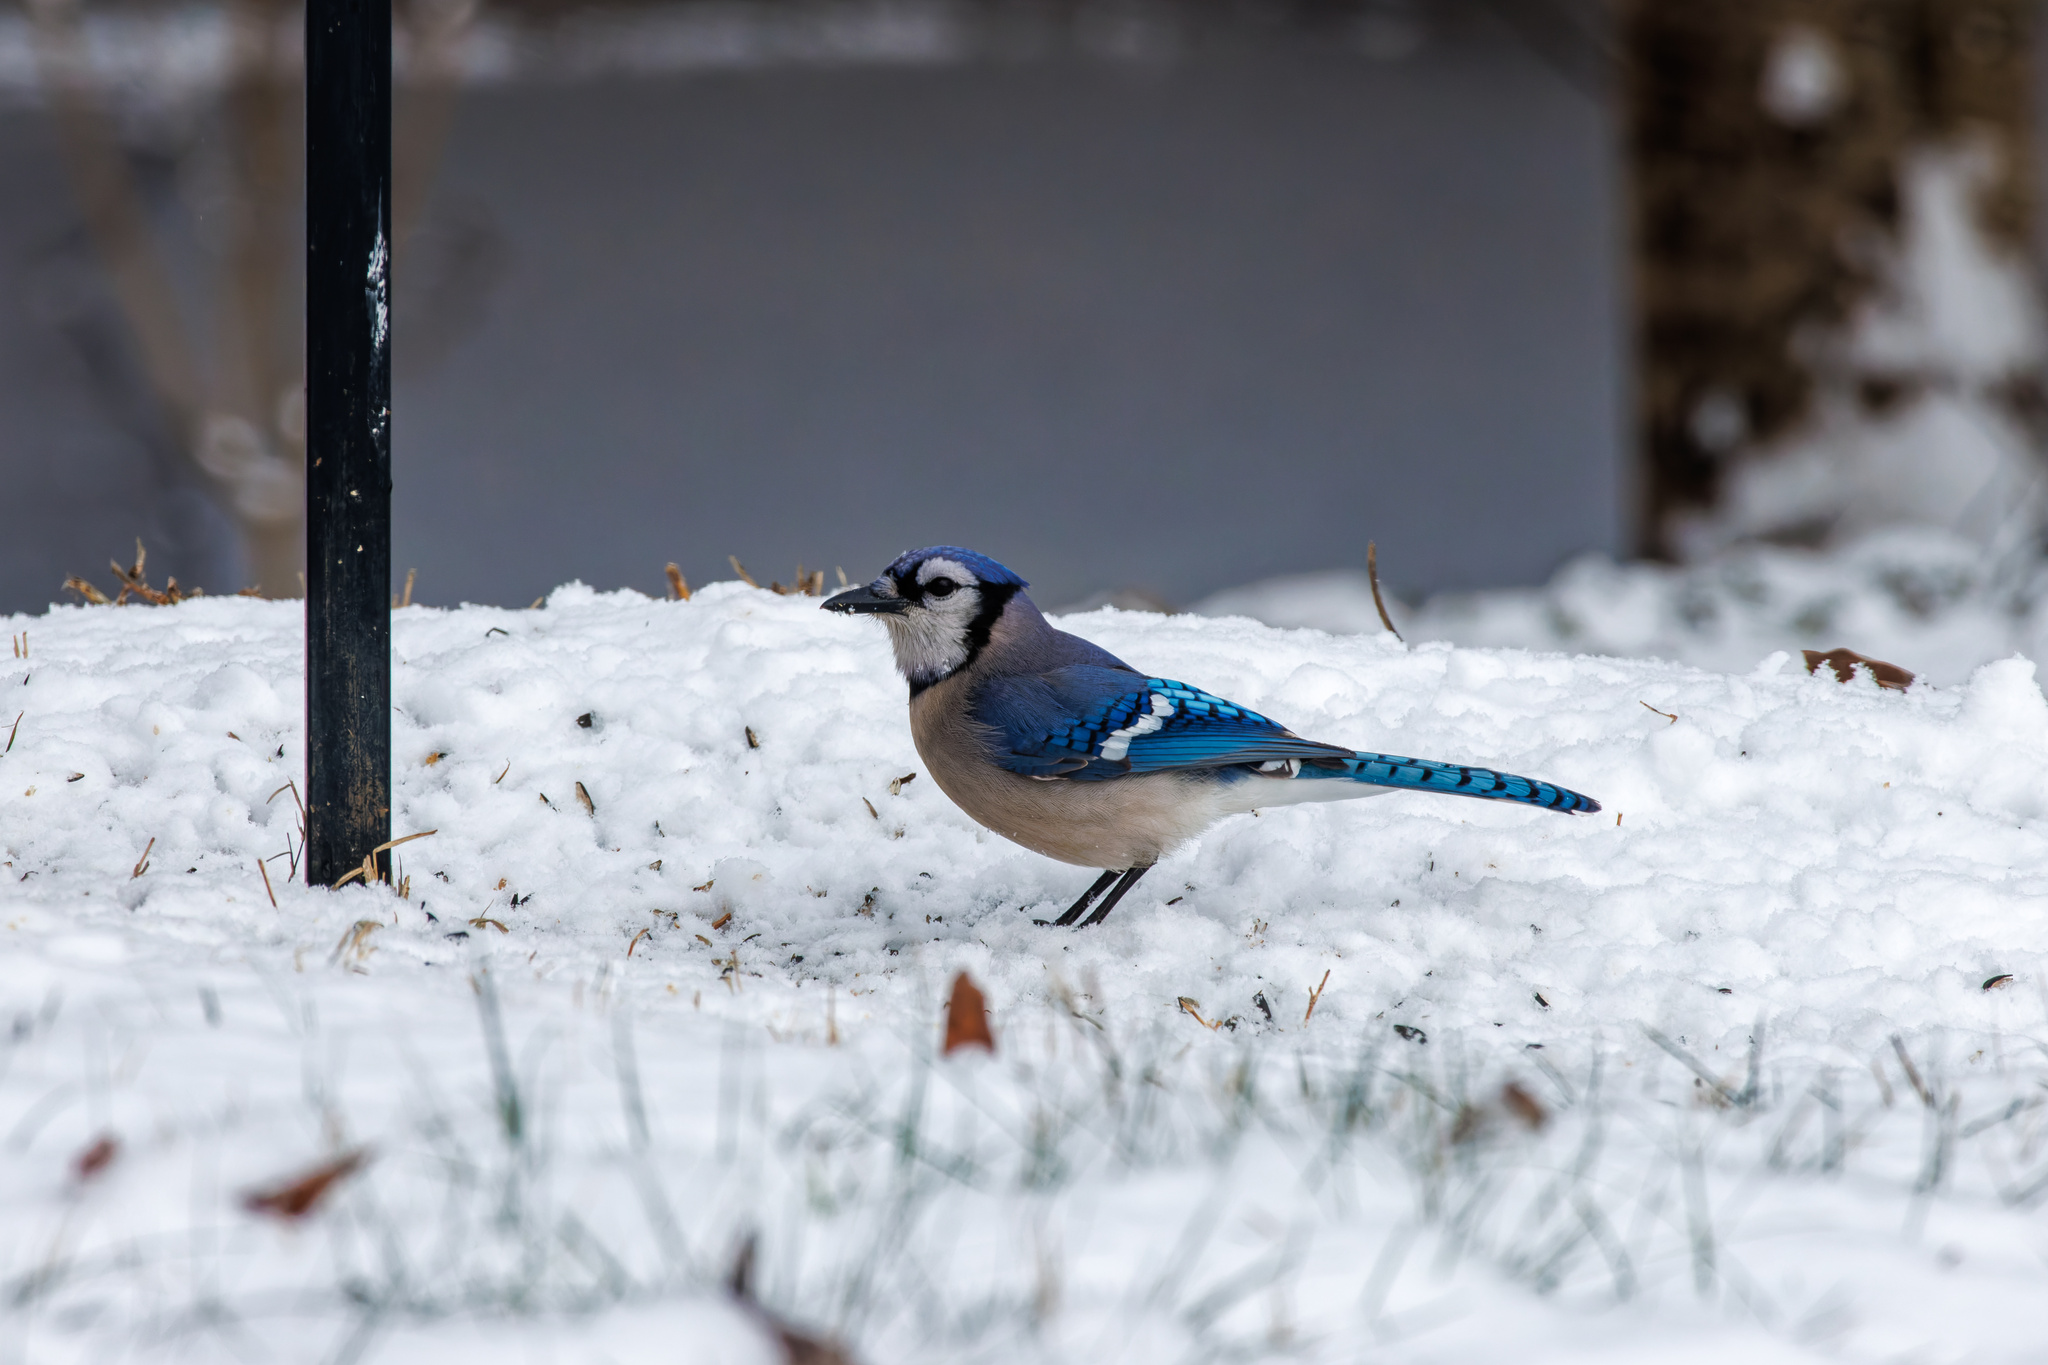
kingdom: Animalia
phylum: Chordata
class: Aves
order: Passeriformes
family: Corvidae
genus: Cyanocitta
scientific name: Cyanocitta cristata
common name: Blue jay
